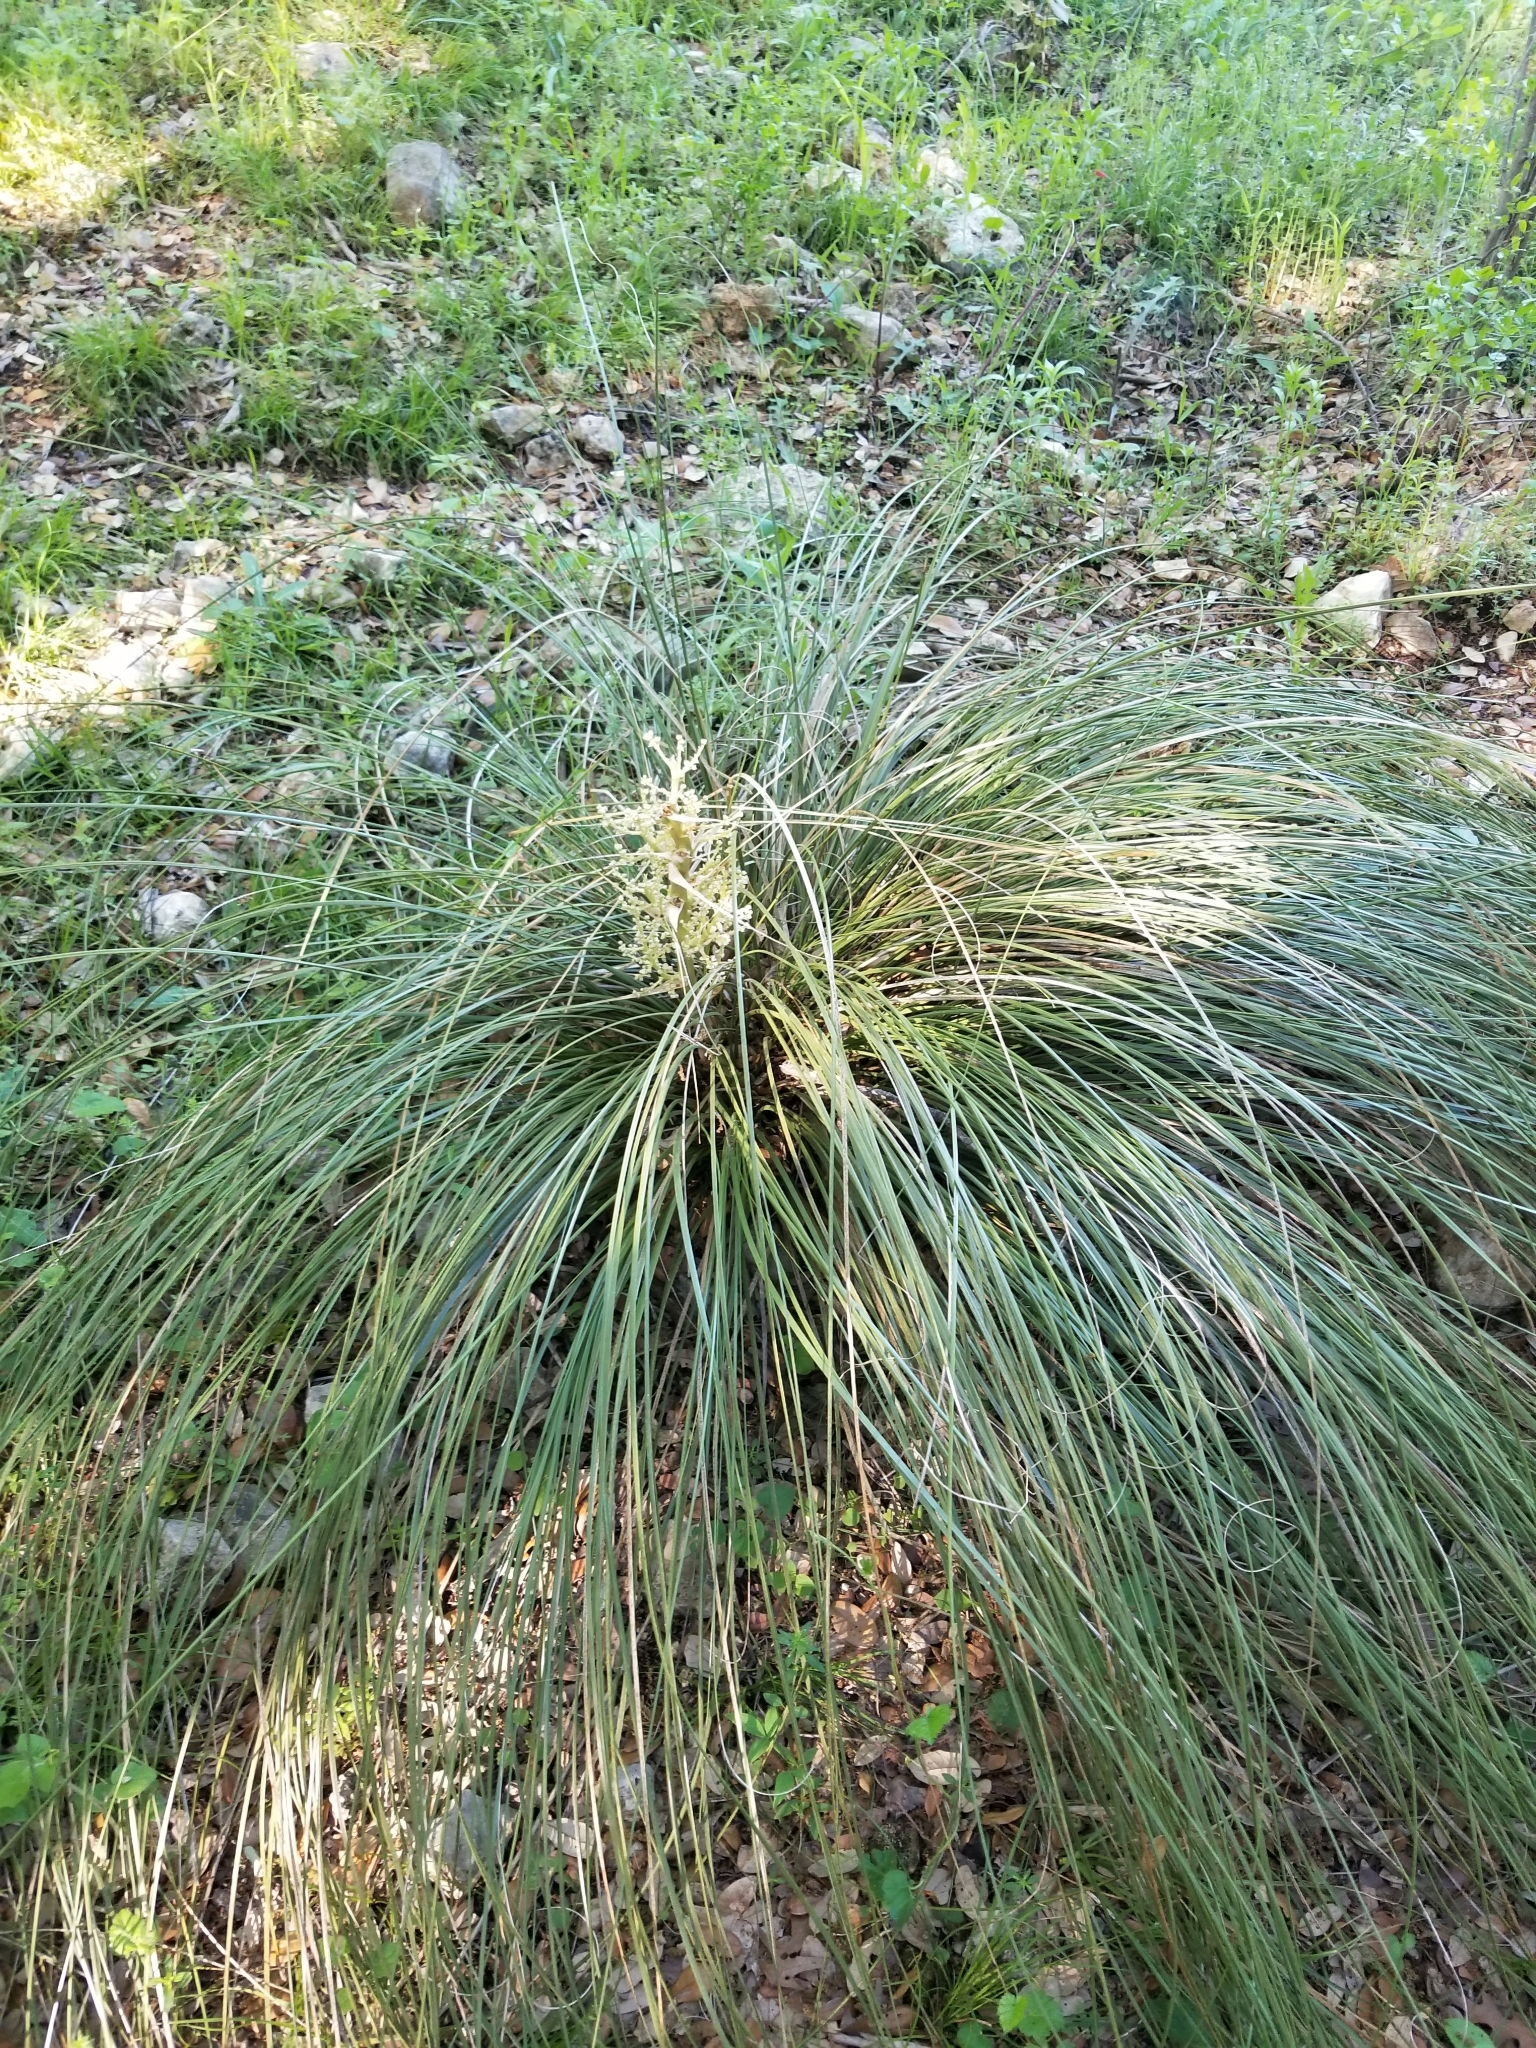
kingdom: Plantae
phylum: Tracheophyta
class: Liliopsida
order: Asparagales
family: Asparagaceae
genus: Nolina
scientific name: Nolina texana
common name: Texas sacahuiste
